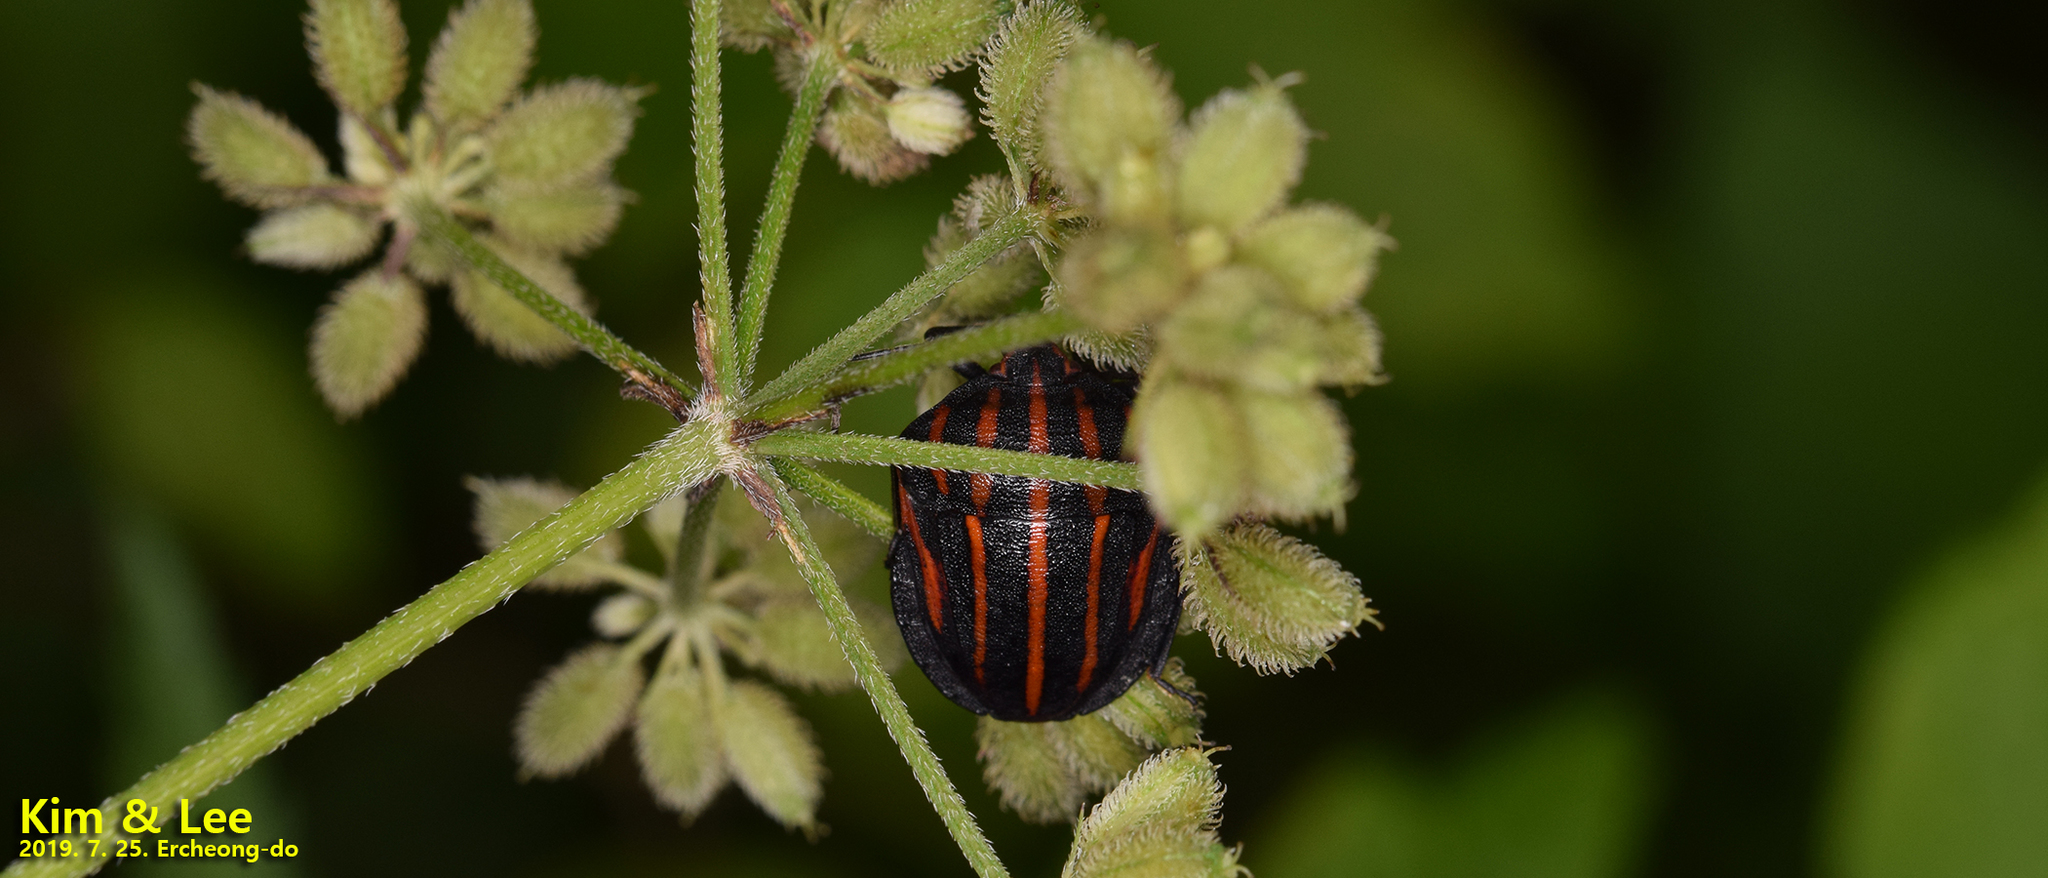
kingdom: Animalia
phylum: Arthropoda
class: Insecta
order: Hemiptera
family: Pentatomidae
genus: Graphosoma
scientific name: Graphosoma rubrolineatum
